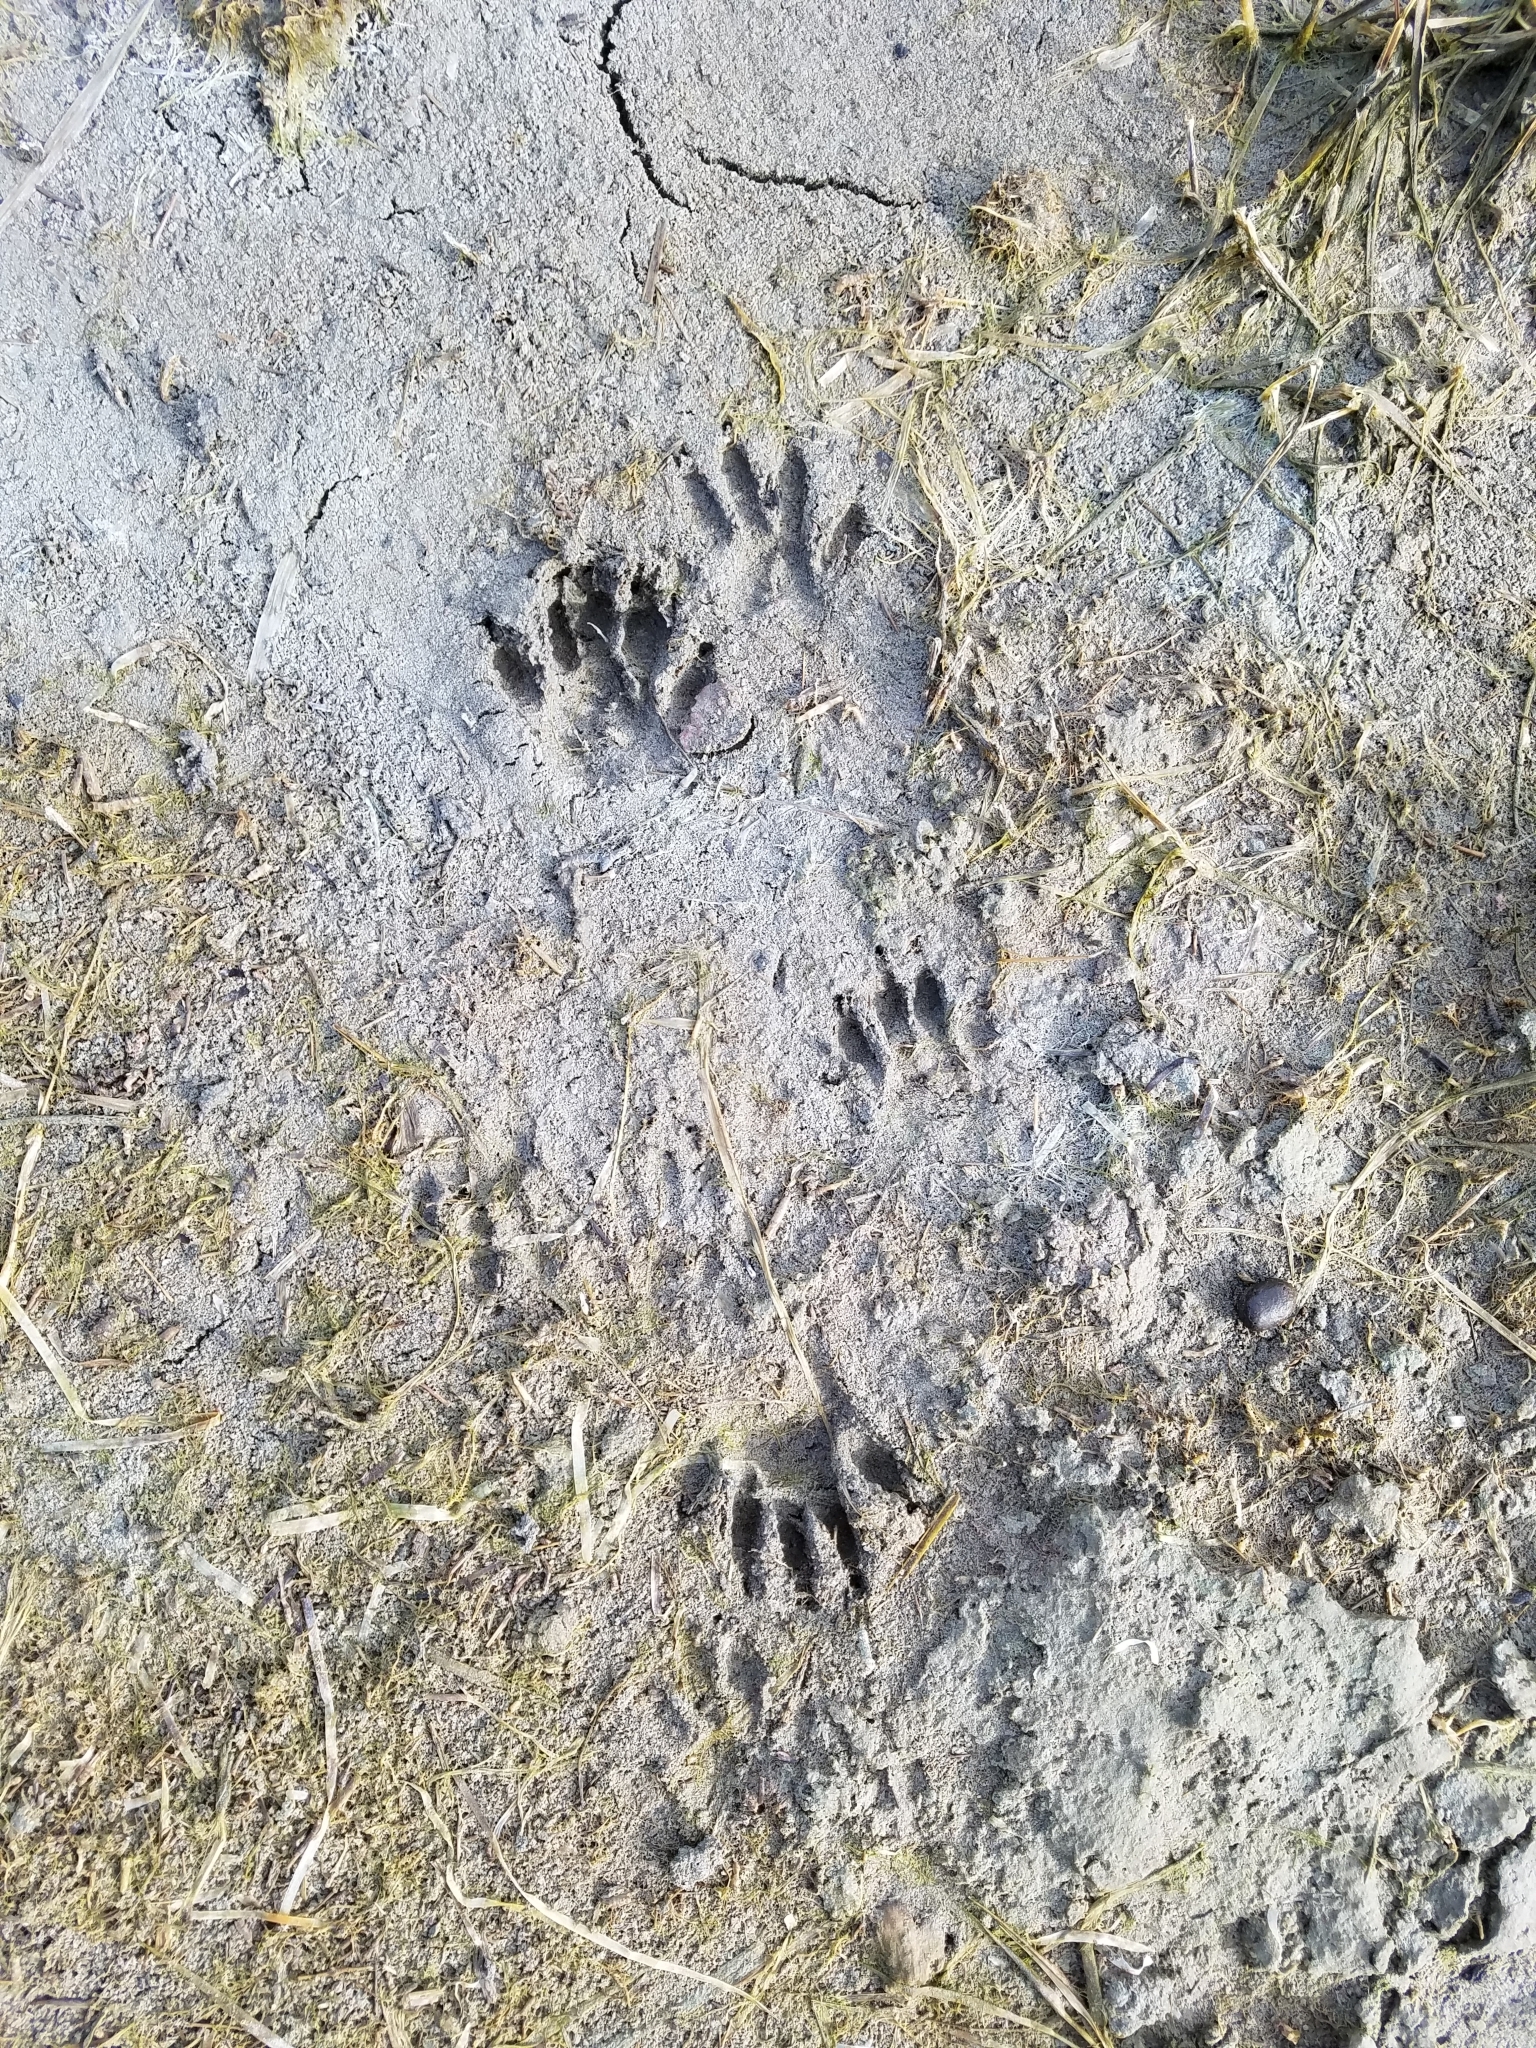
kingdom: Animalia
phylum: Chordata
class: Mammalia
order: Carnivora
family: Procyonidae
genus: Procyon
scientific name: Procyon lotor
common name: Raccoon
